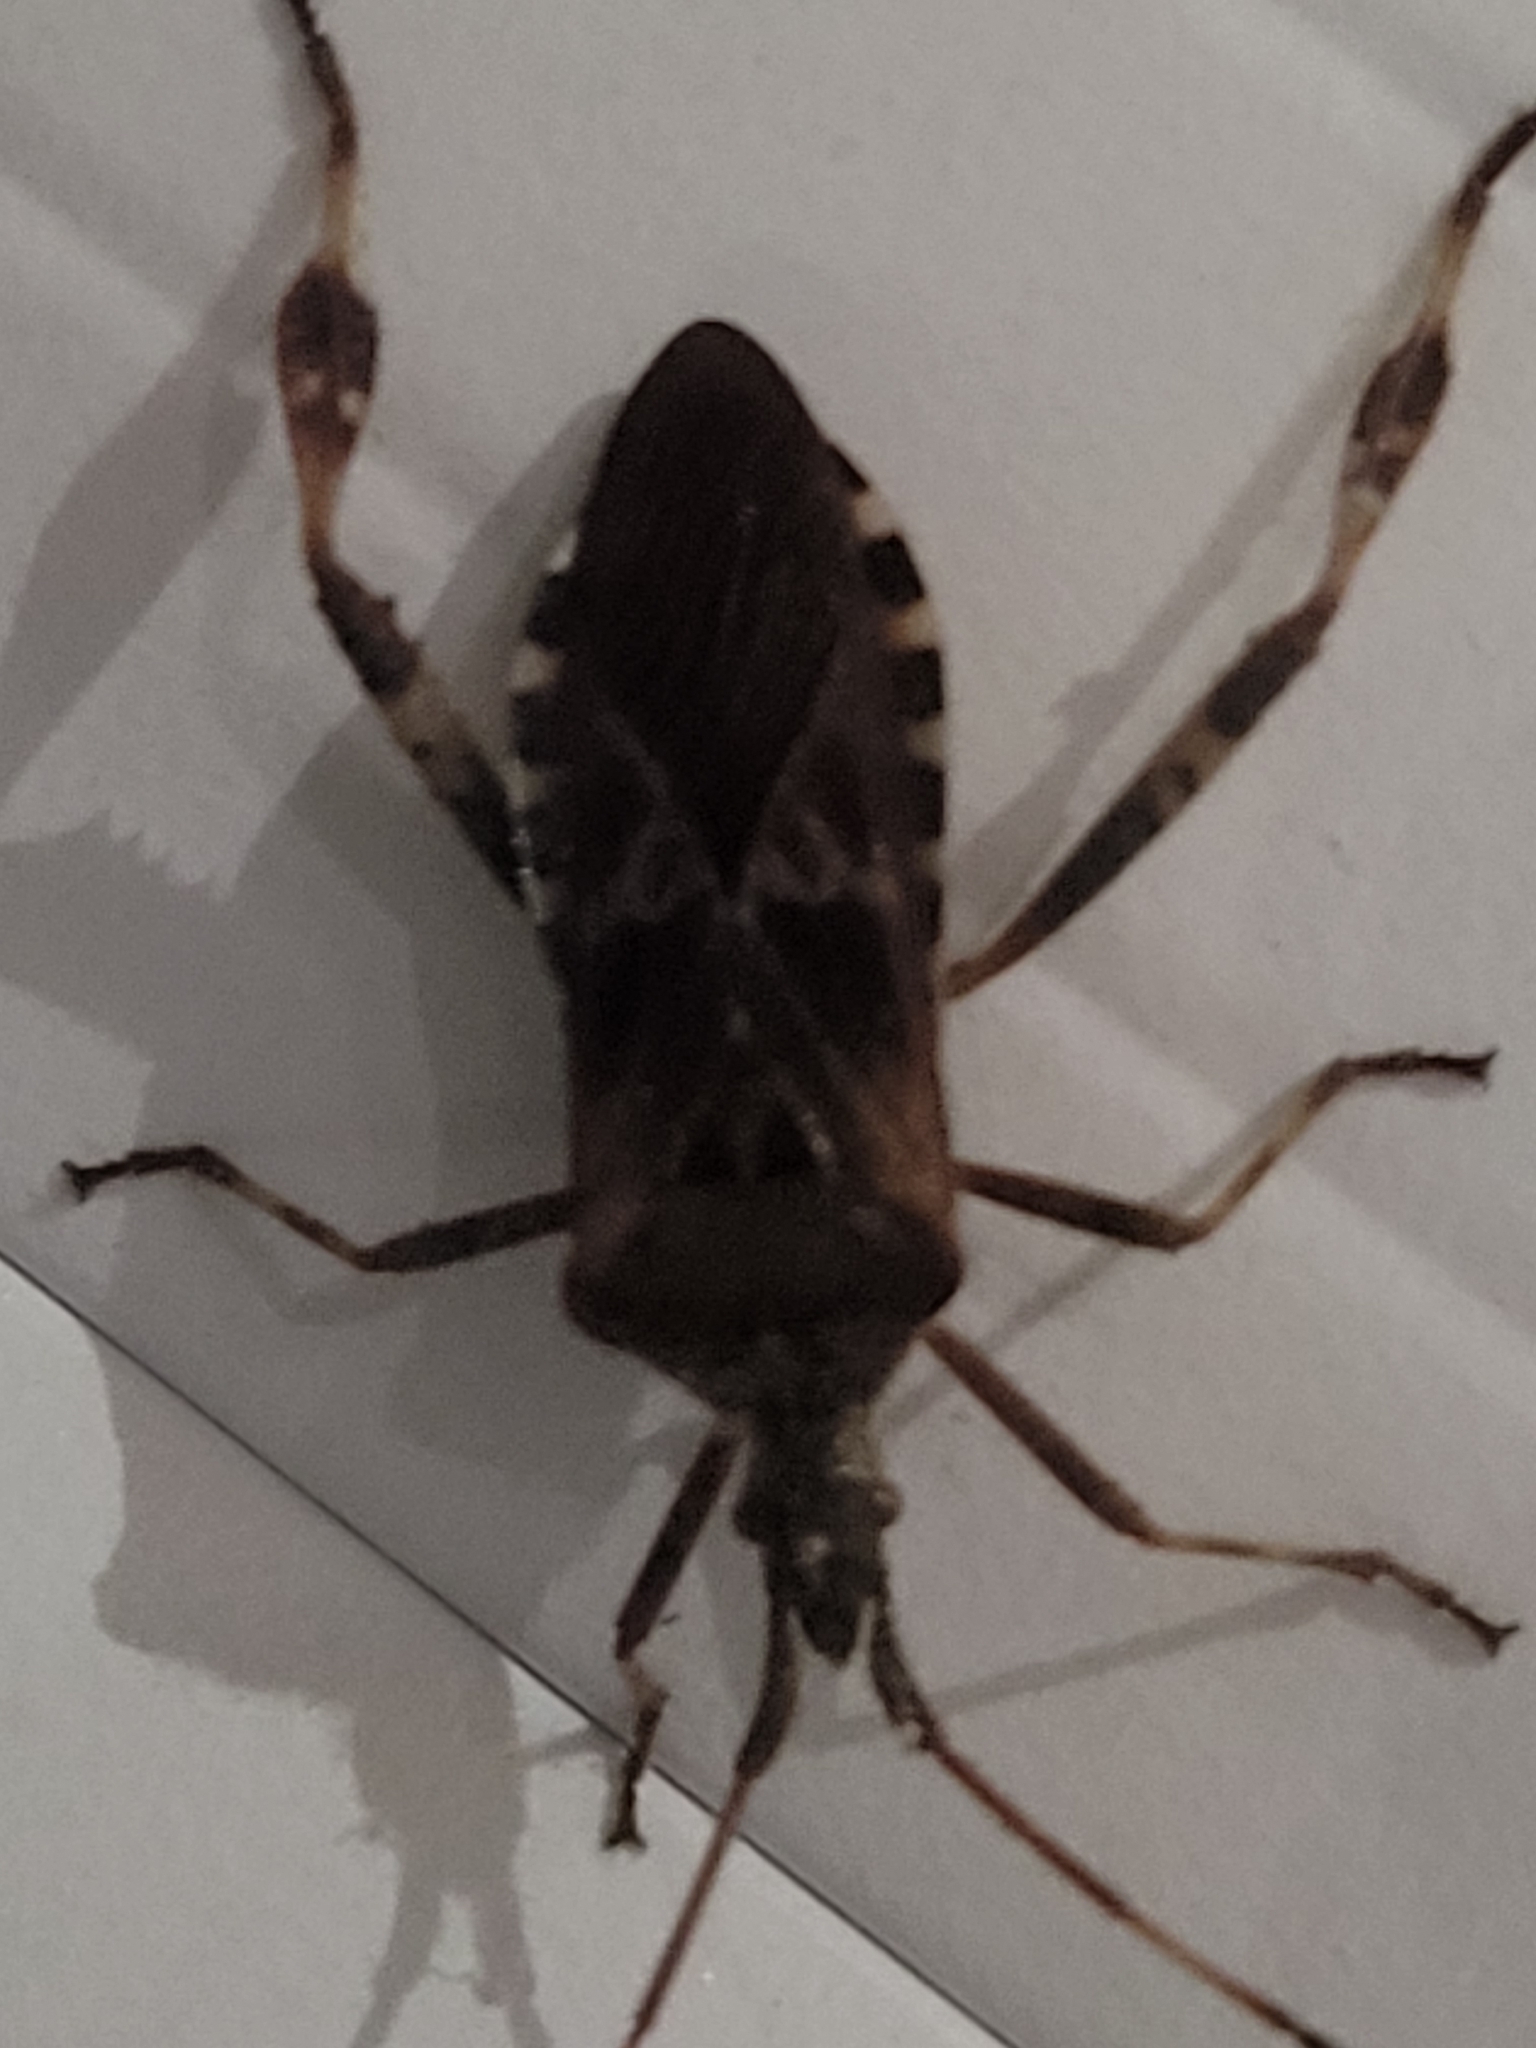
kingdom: Animalia
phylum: Arthropoda
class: Insecta
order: Hemiptera
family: Coreidae
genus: Leptoglossus
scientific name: Leptoglossus occidentalis
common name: Western conifer-seed bug
